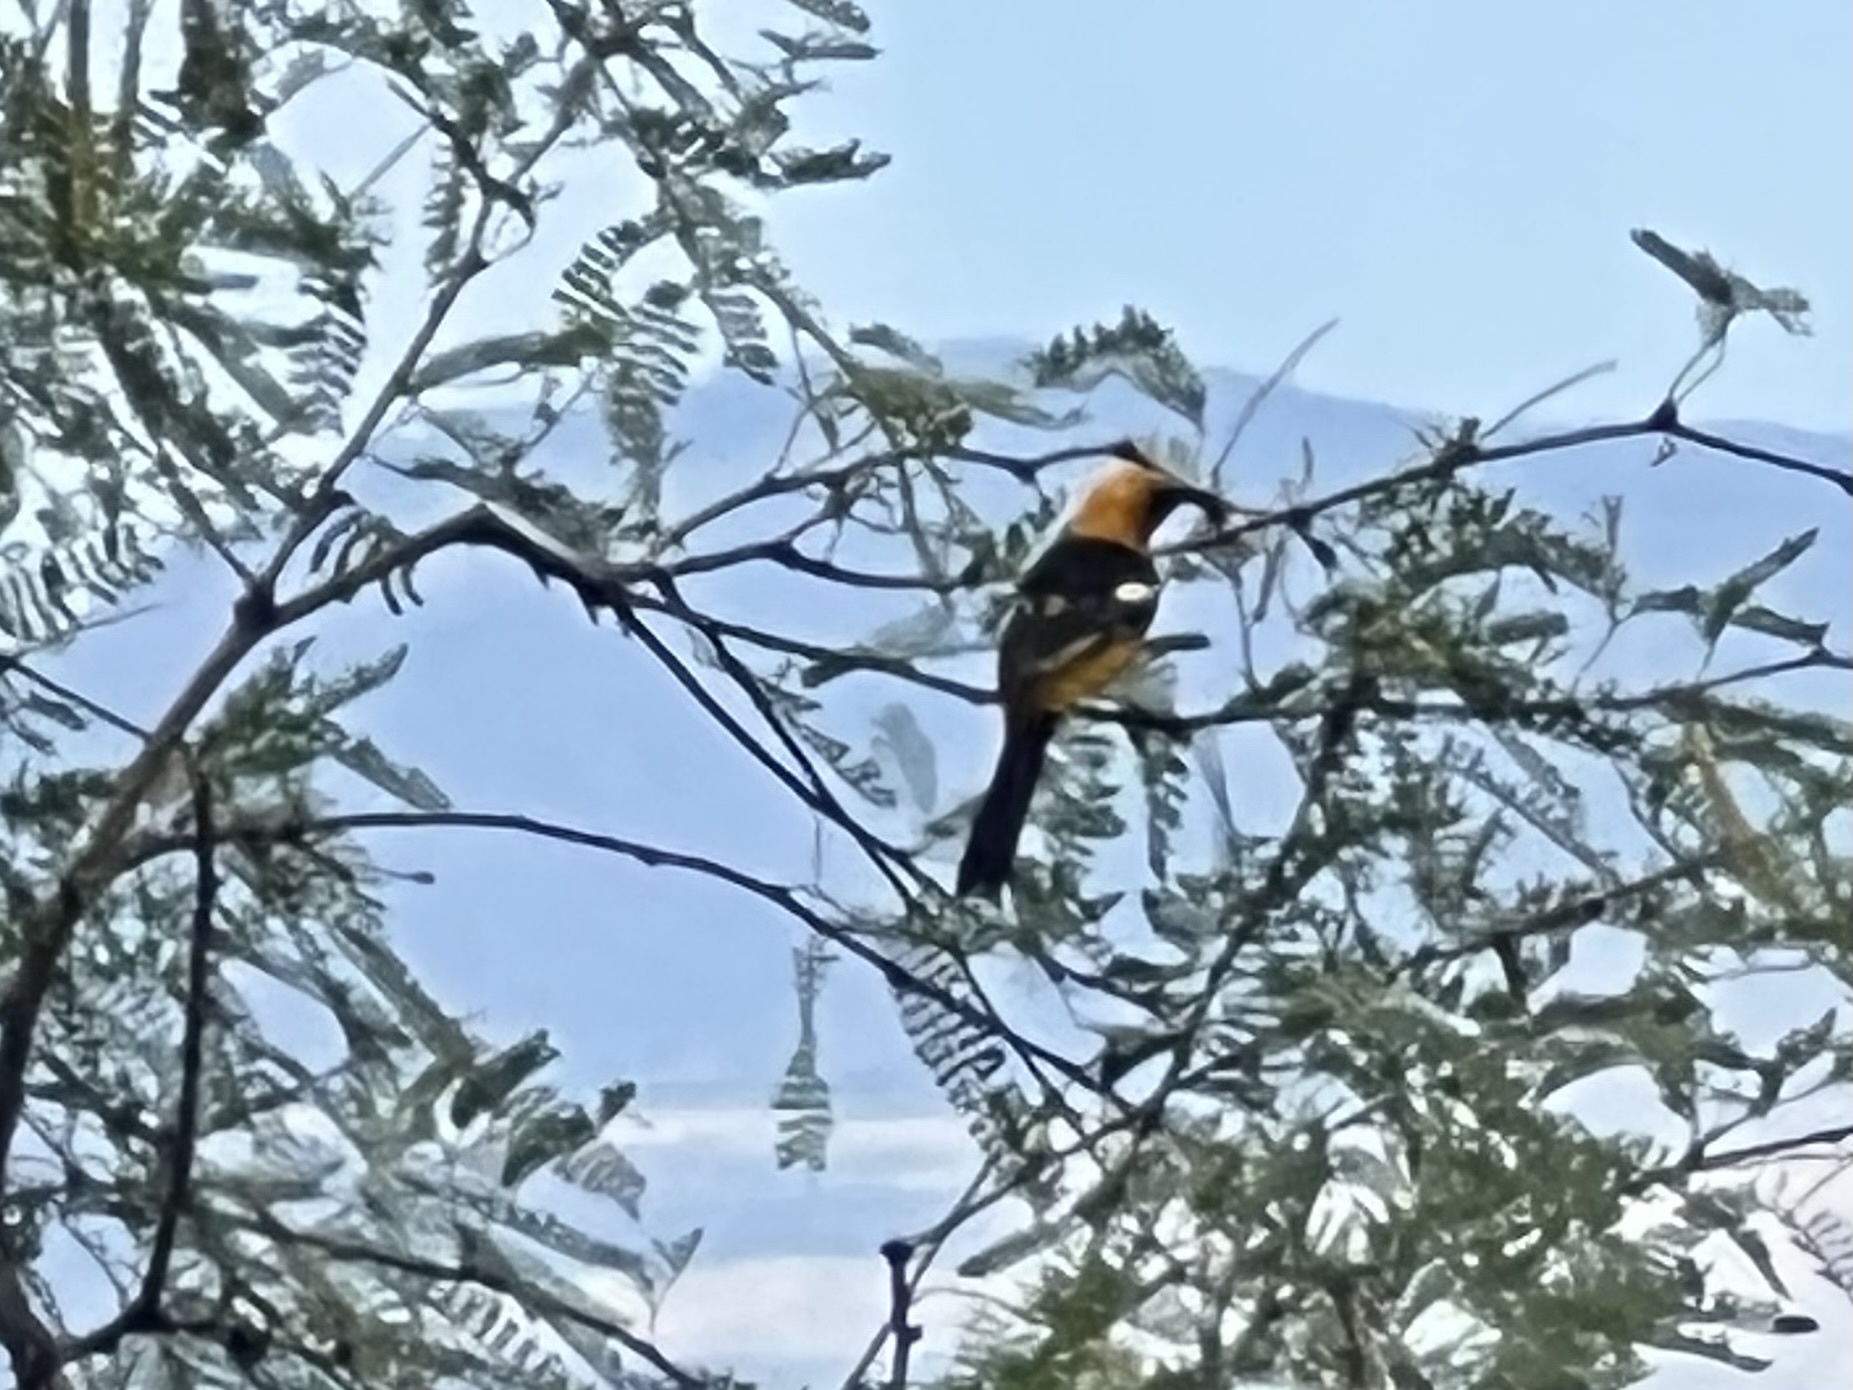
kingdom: Animalia
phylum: Chordata
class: Aves
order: Passeriformes
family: Icteridae
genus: Icterus
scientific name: Icterus cucullatus
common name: Hooded oriole
